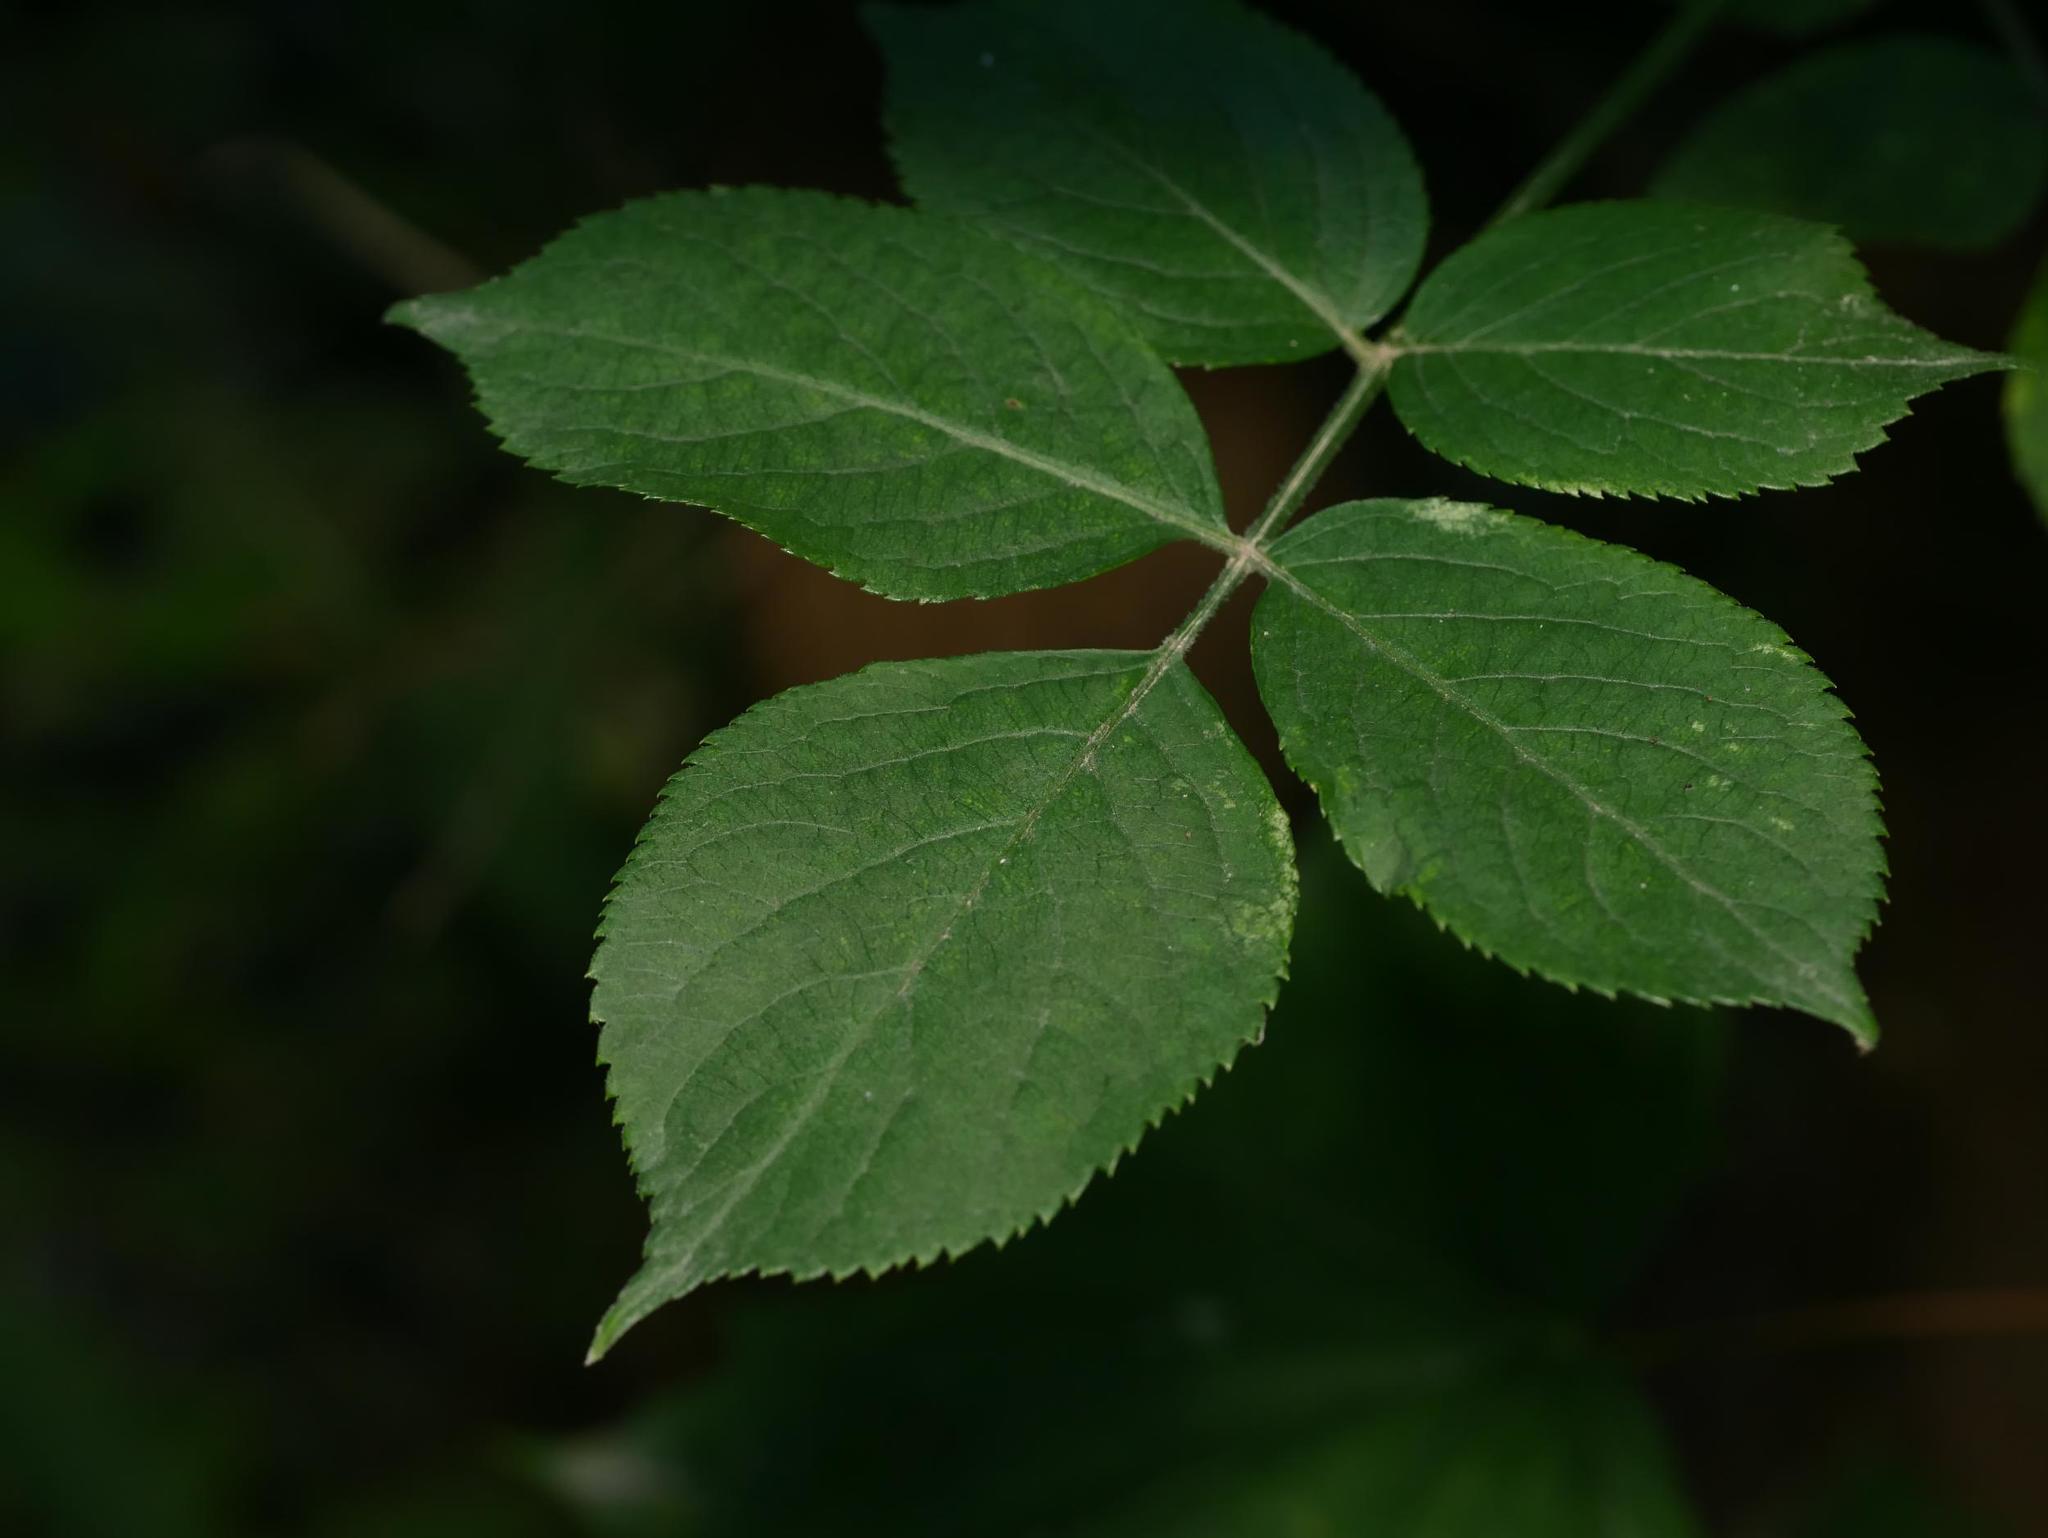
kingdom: Plantae
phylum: Tracheophyta
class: Magnoliopsida
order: Dipsacales
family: Viburnaceae
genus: Sambucus
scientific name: Sambucus nigra
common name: Elder
